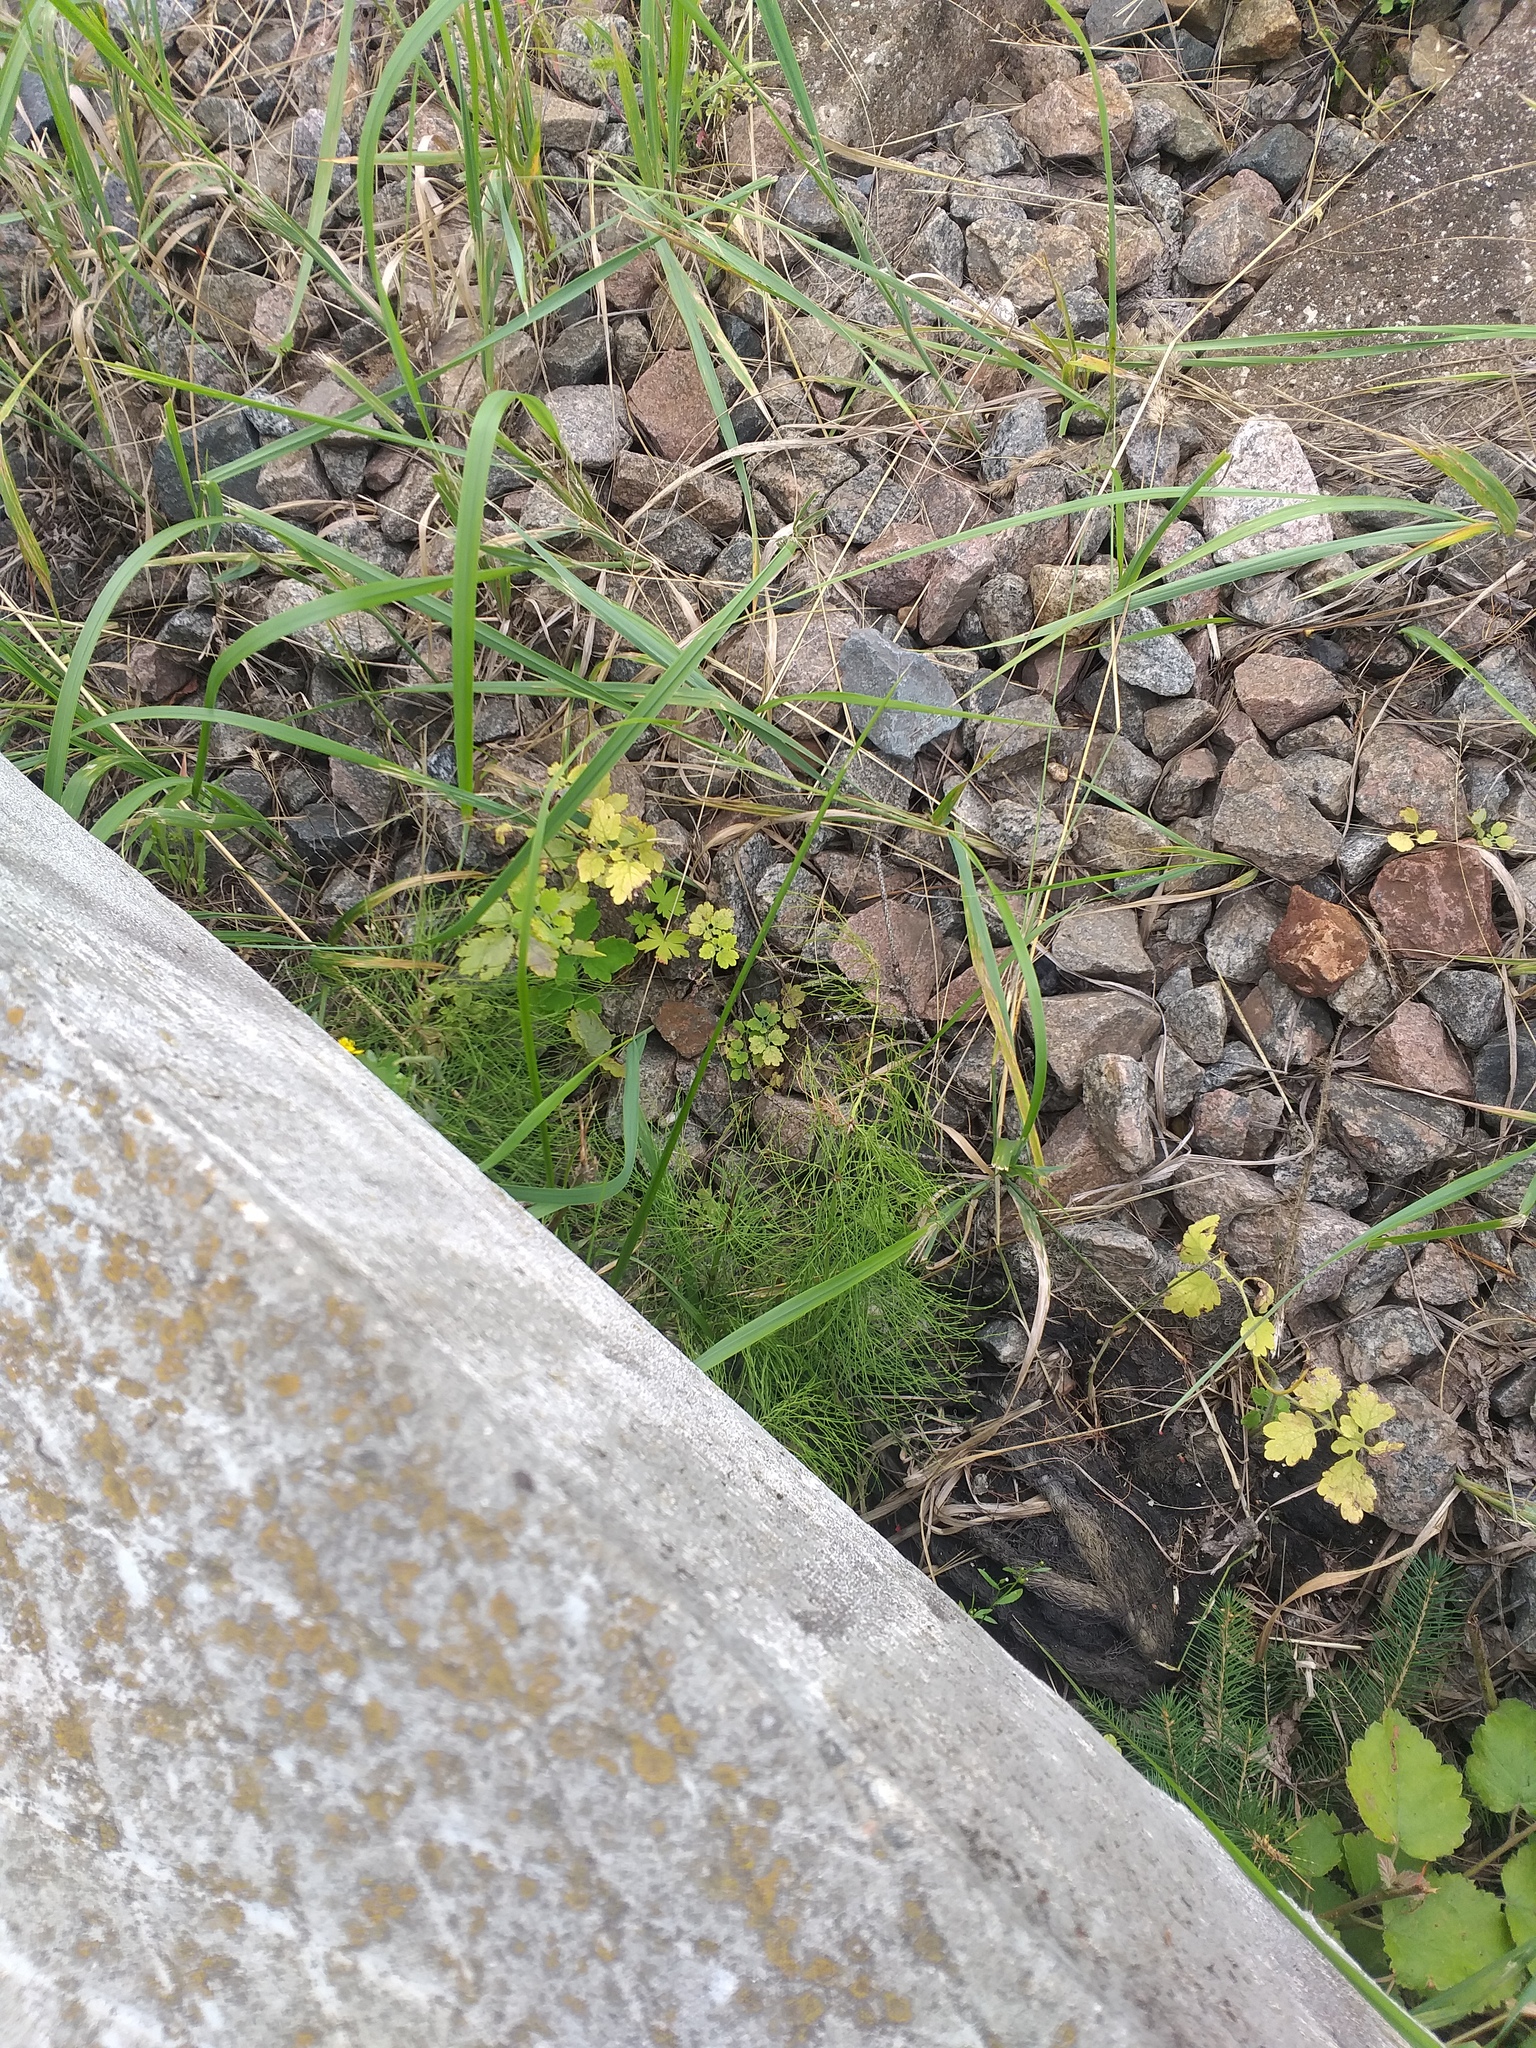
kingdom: Plantae
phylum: Tracheophyta
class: Polypodiopsida
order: Equisetales
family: Equisetaceae
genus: Equisetum
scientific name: Equisetum sylvaticum
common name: Wood horsetail
